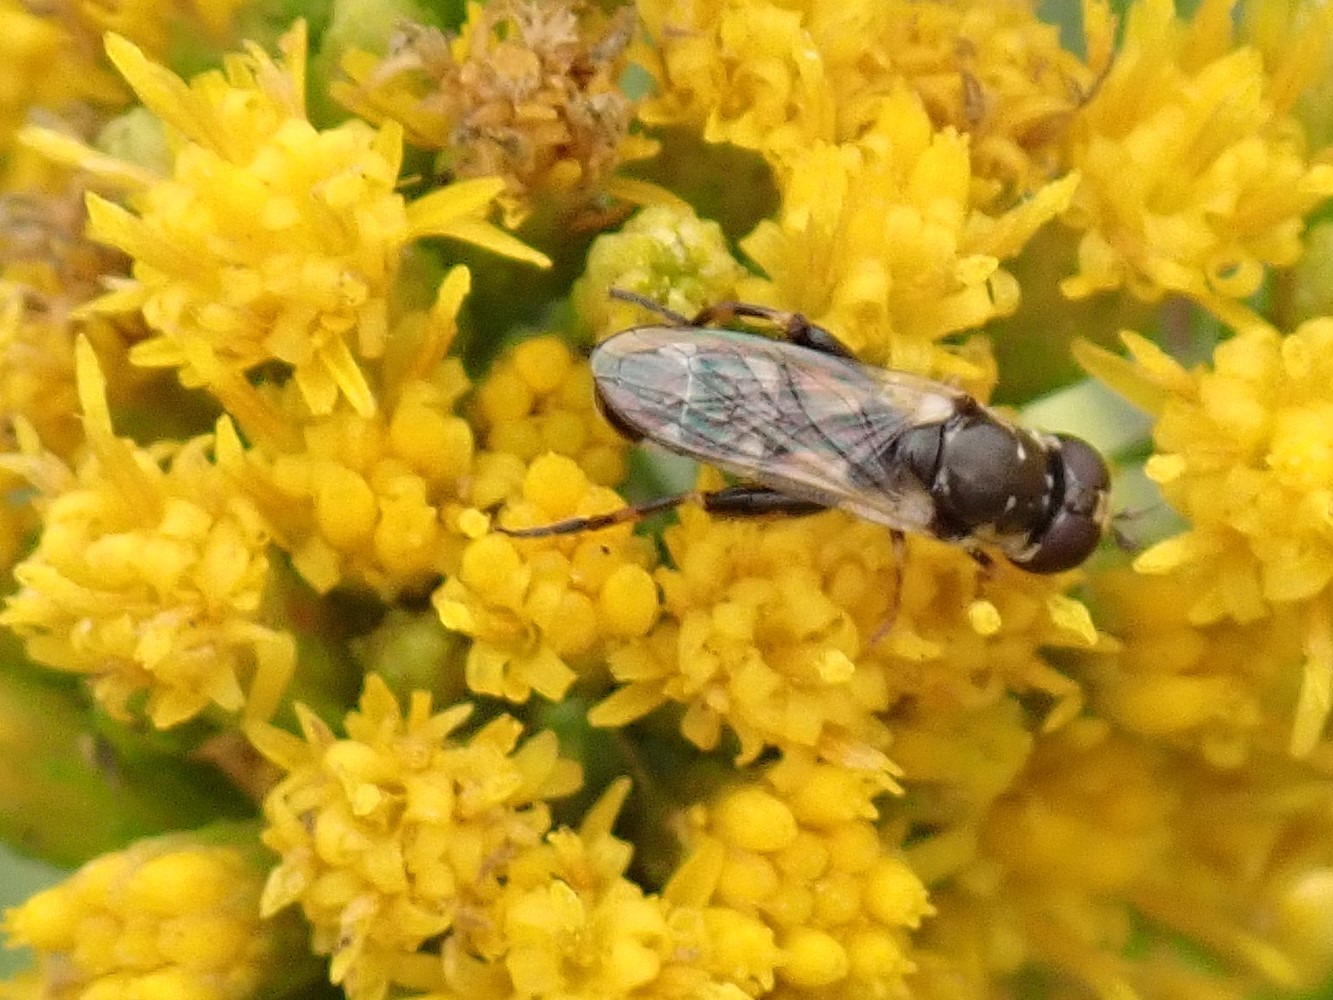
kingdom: Animalia
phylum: Arthropoda
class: Insecta
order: Diptera
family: Syrphidae
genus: Syritta
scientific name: Syritta flaviventris
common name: Syrphid fly
